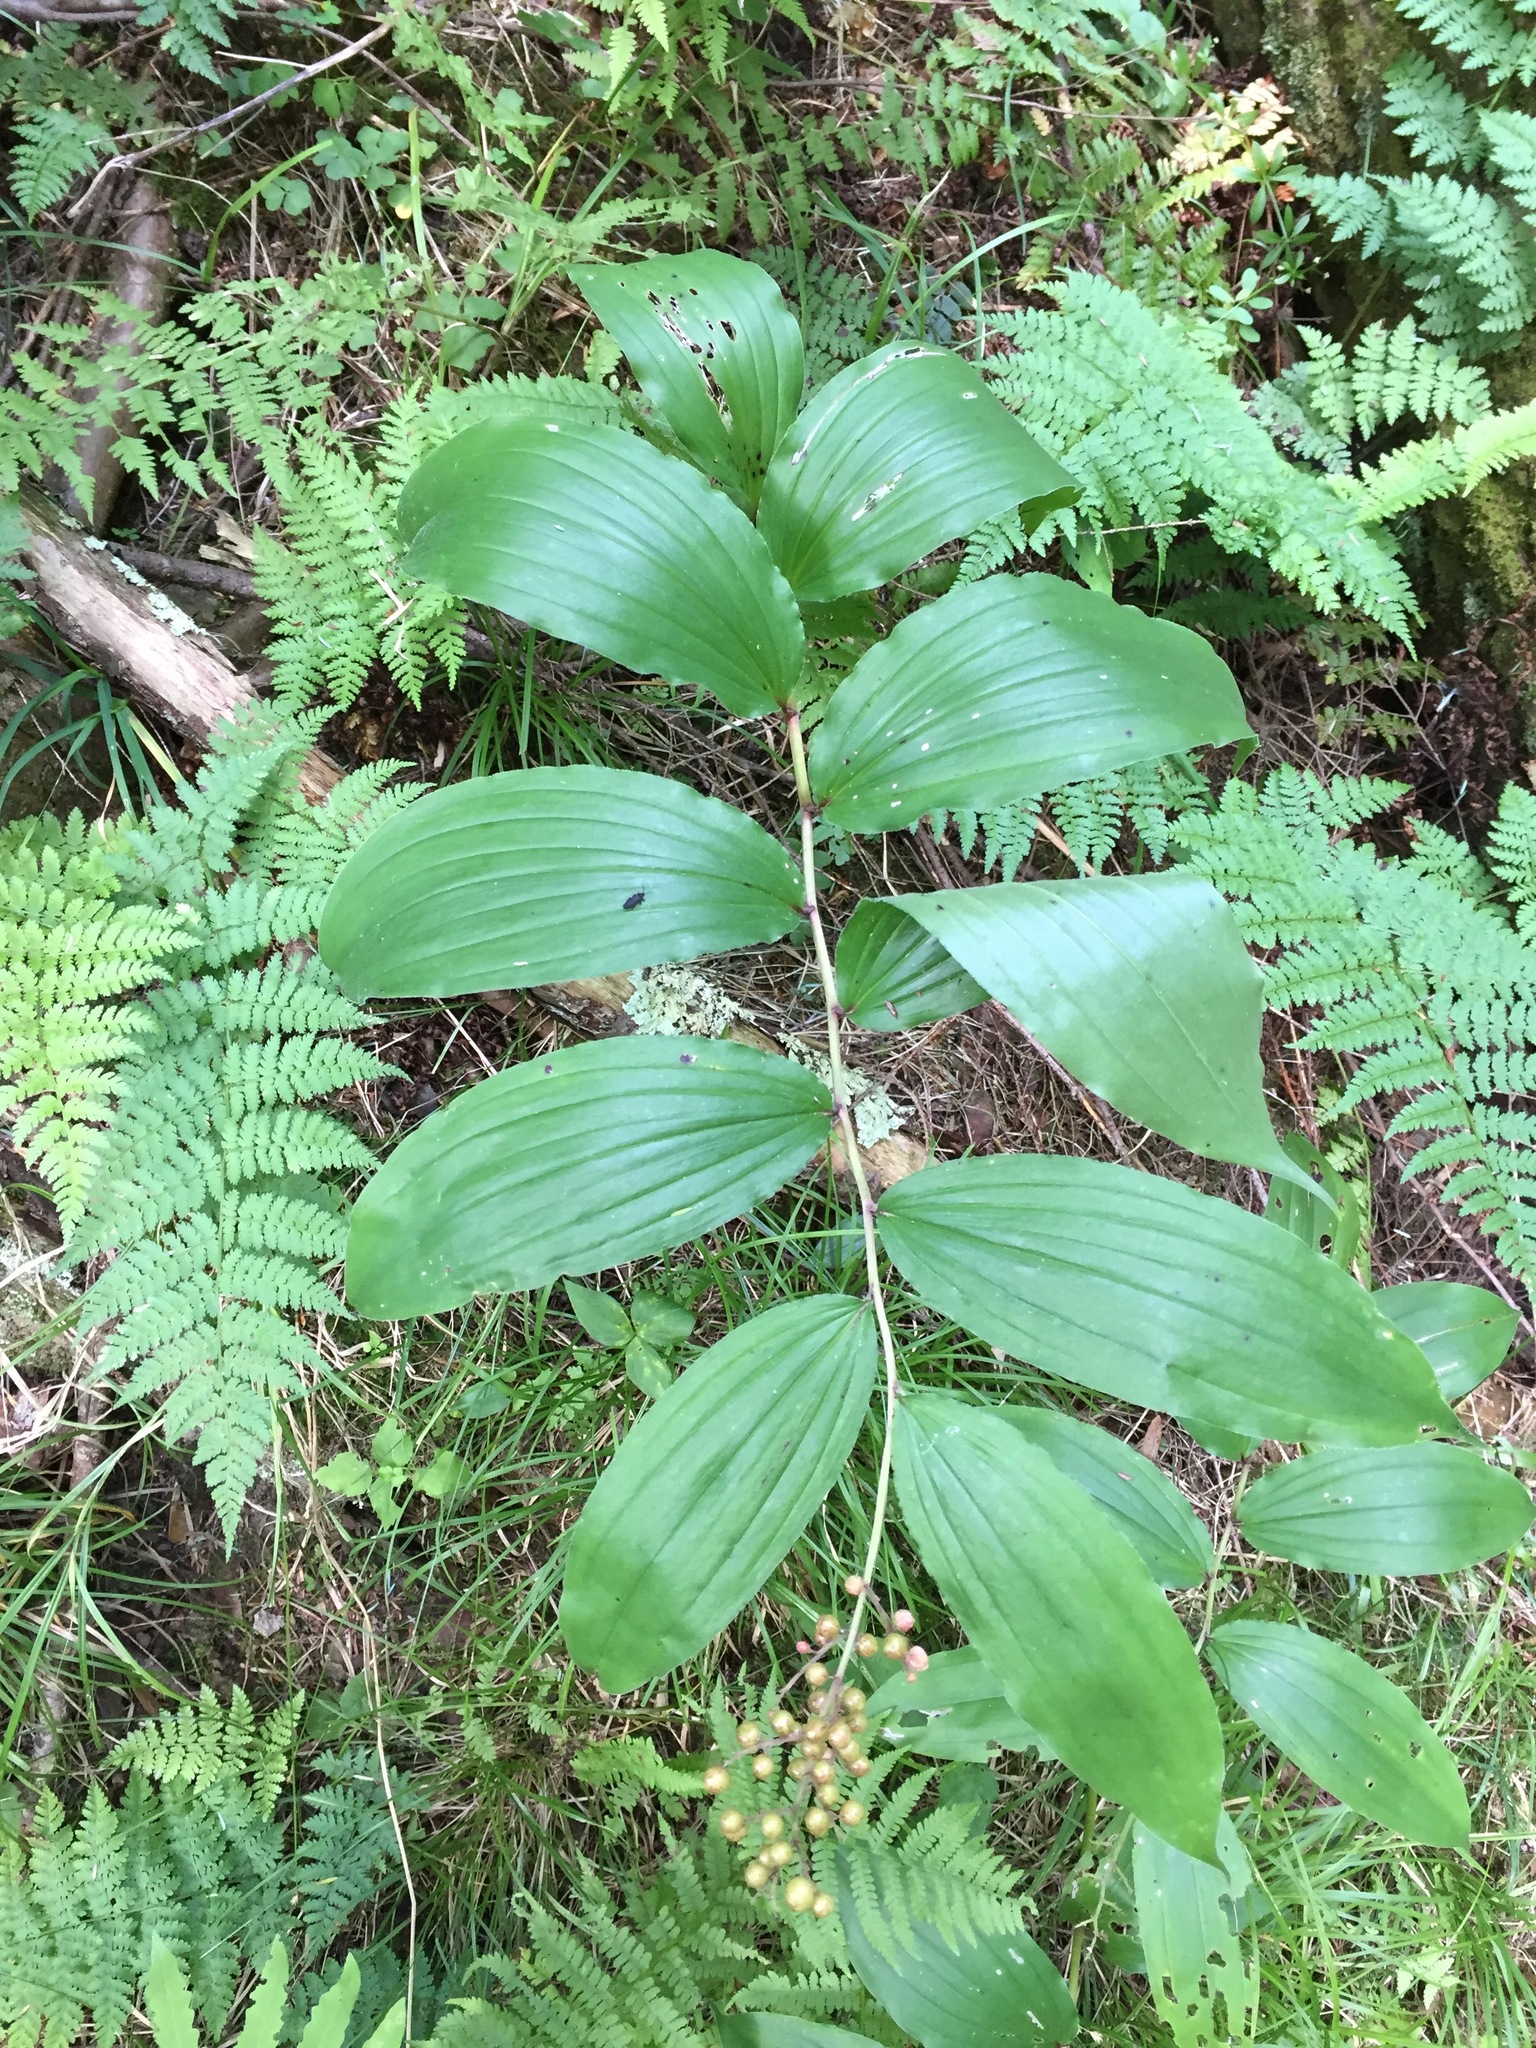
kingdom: Plantae
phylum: Tracheophyta
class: Liliopsida
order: Asparagales
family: Asparagaceae
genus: Maianthemum
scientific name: Maianthemum racemosum
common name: False spikenard
